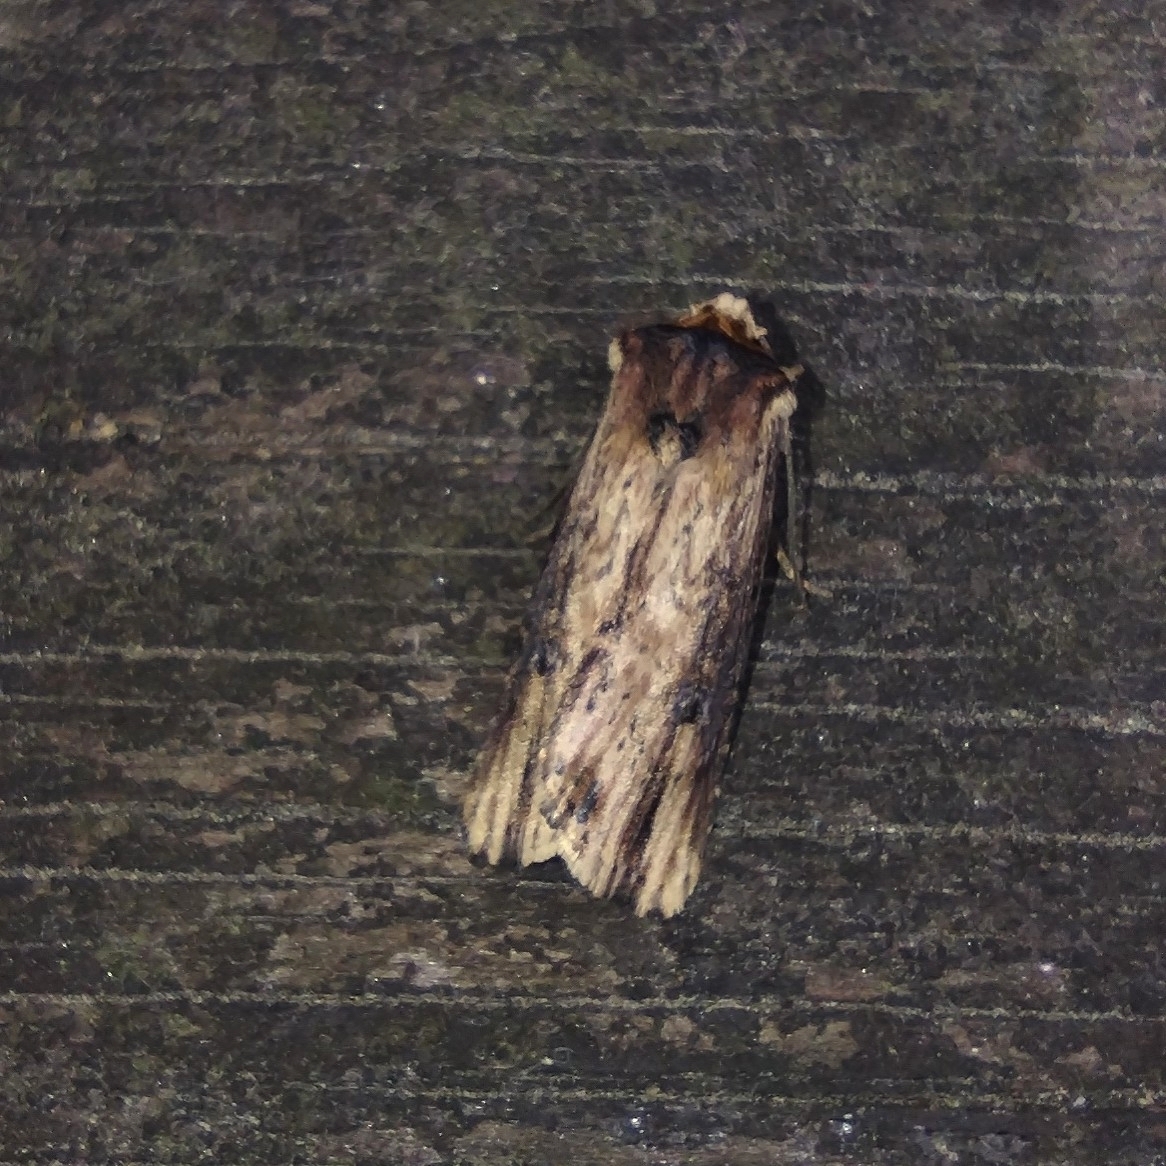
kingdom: Animalia
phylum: Arthropoda
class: Insecta
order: Lepidoptera
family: Noctuidae
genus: Axylia
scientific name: Axylia putris
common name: Flame
